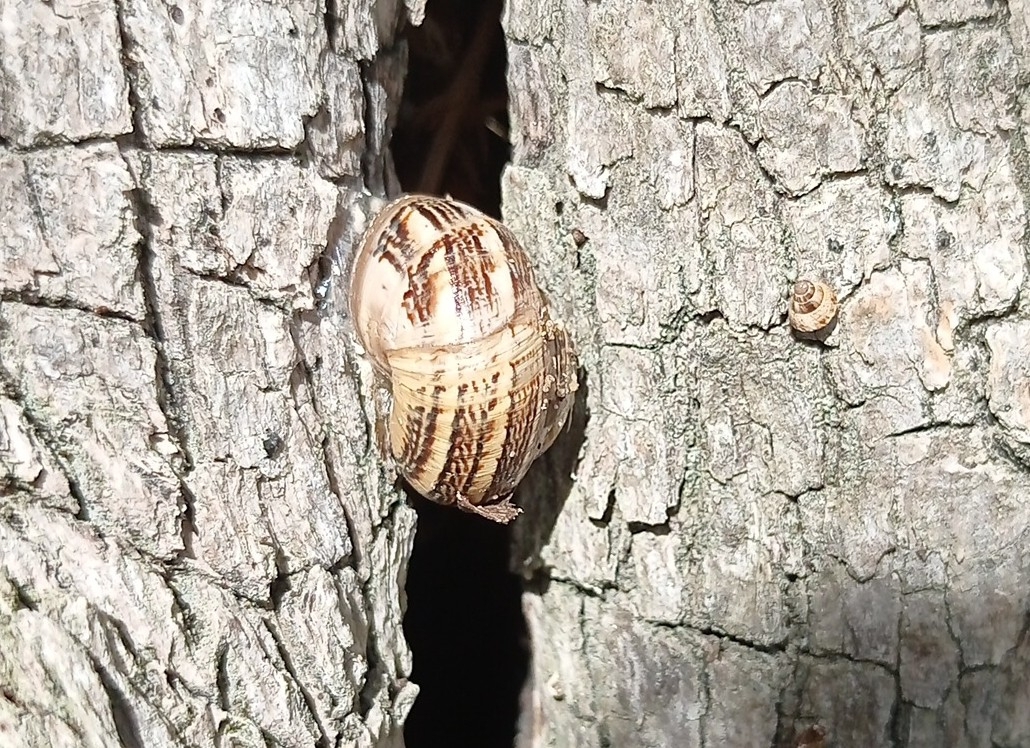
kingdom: Animalia
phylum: Mollusca
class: Gastropoda
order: Stylommatophora
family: Helicidae
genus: Theba
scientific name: Theba pisana
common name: White snail
